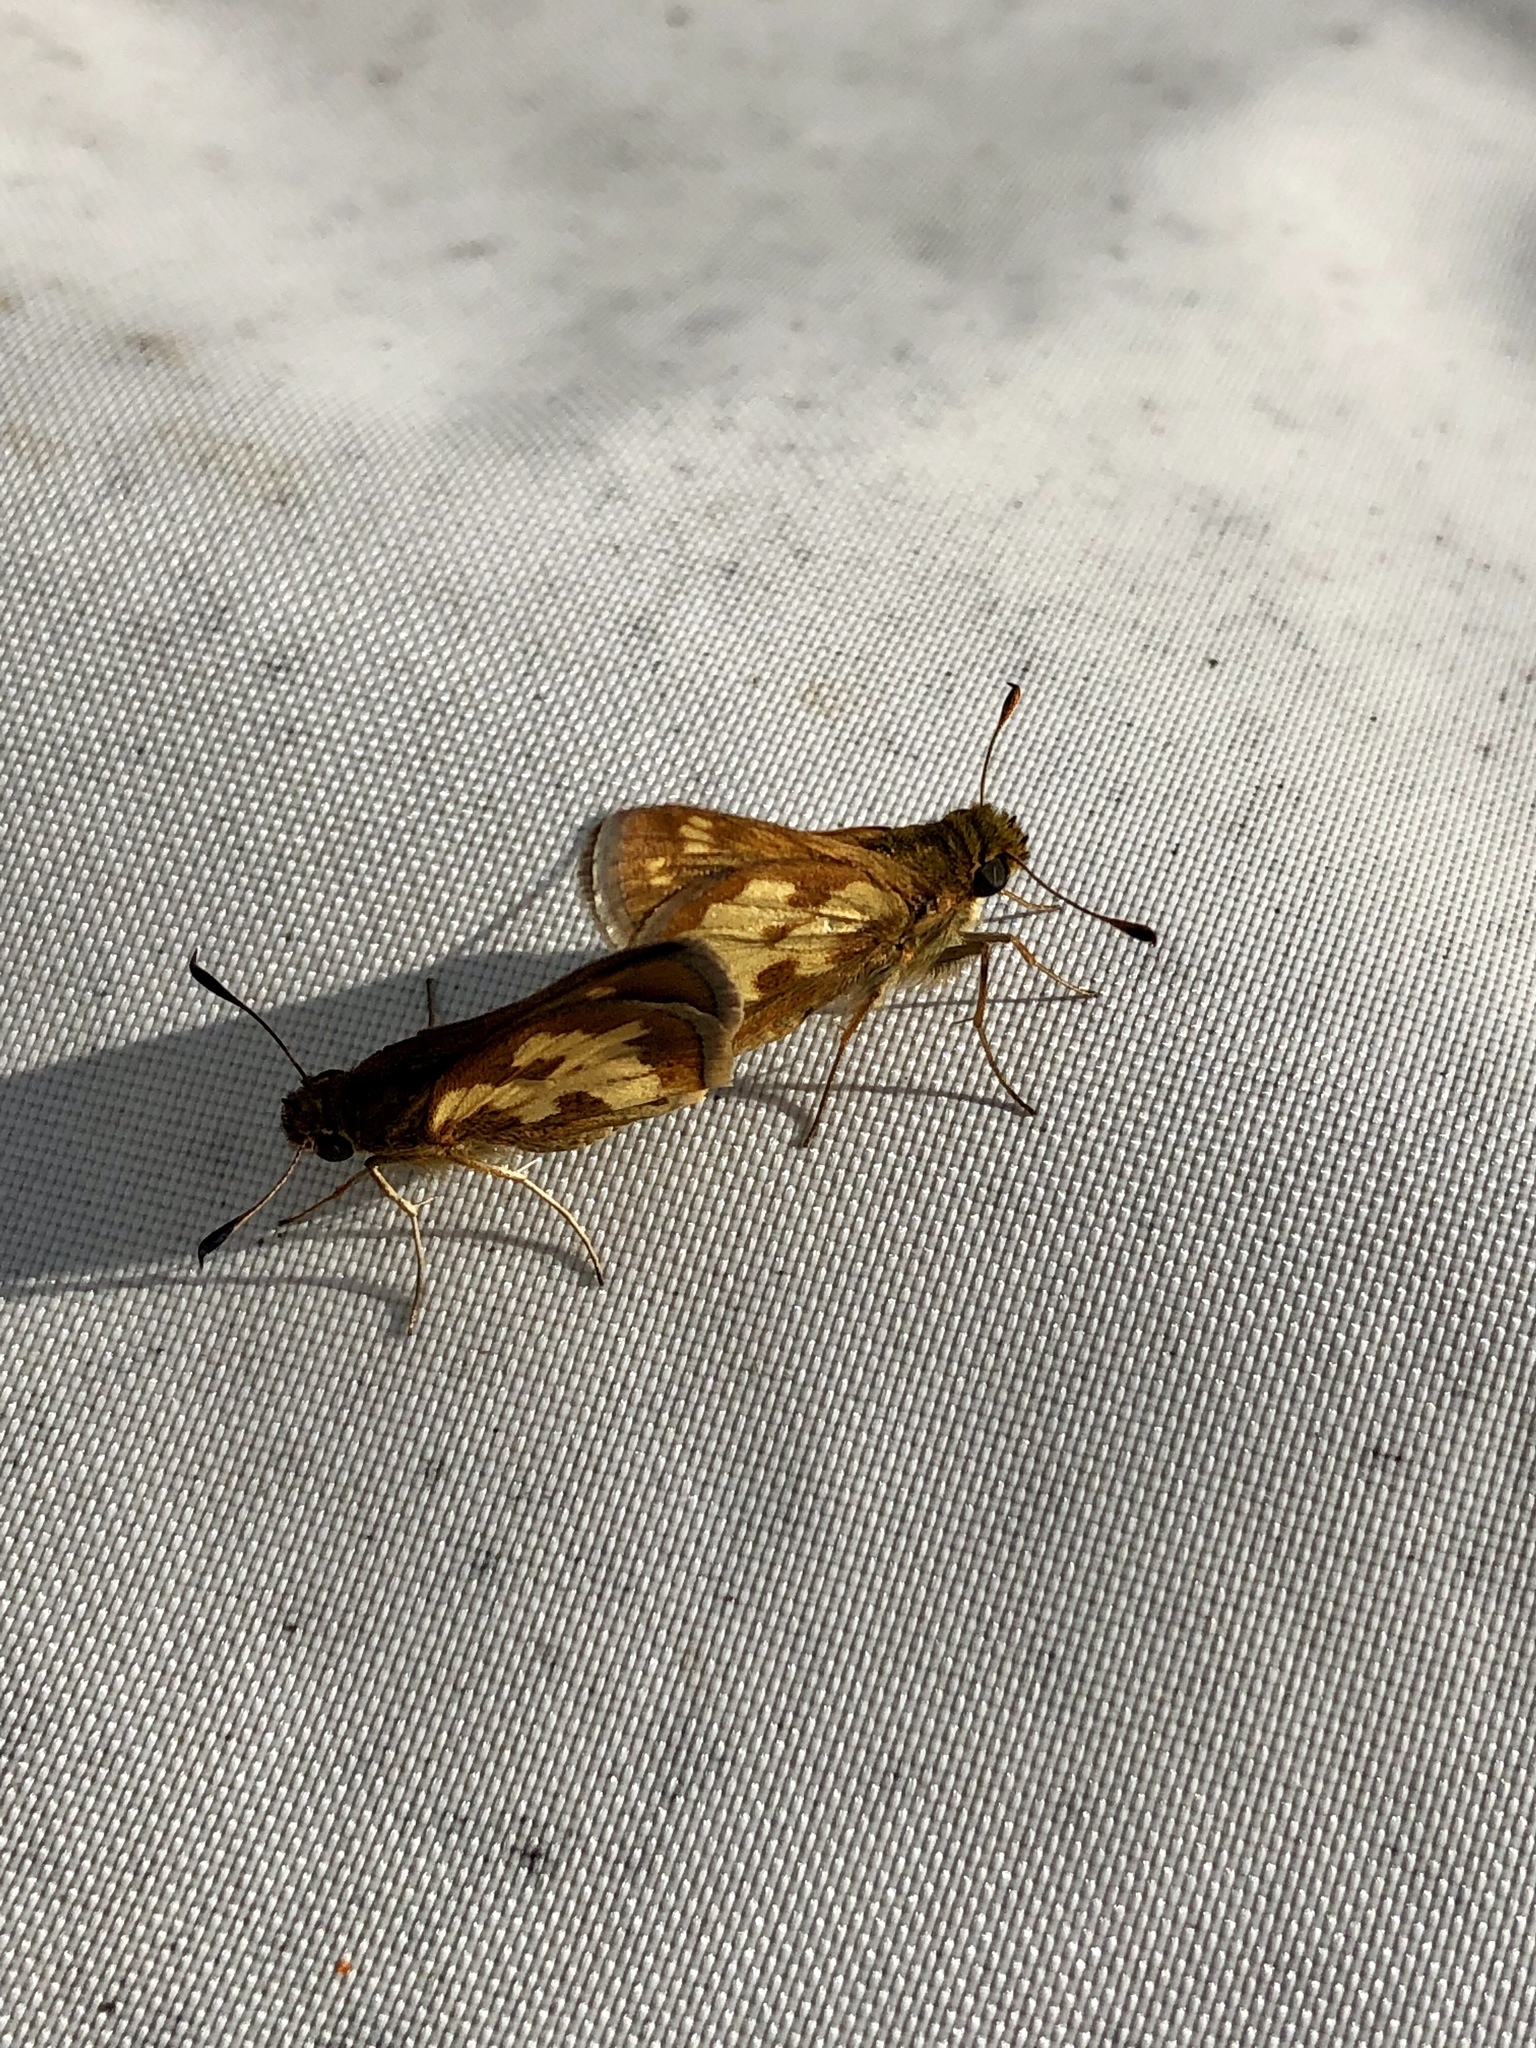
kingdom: Animalia
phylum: Arthropoda
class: Insecta
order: Lepidoptera
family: Hesperiidae
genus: Polites
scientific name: Polites coras
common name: Peck's skipper
